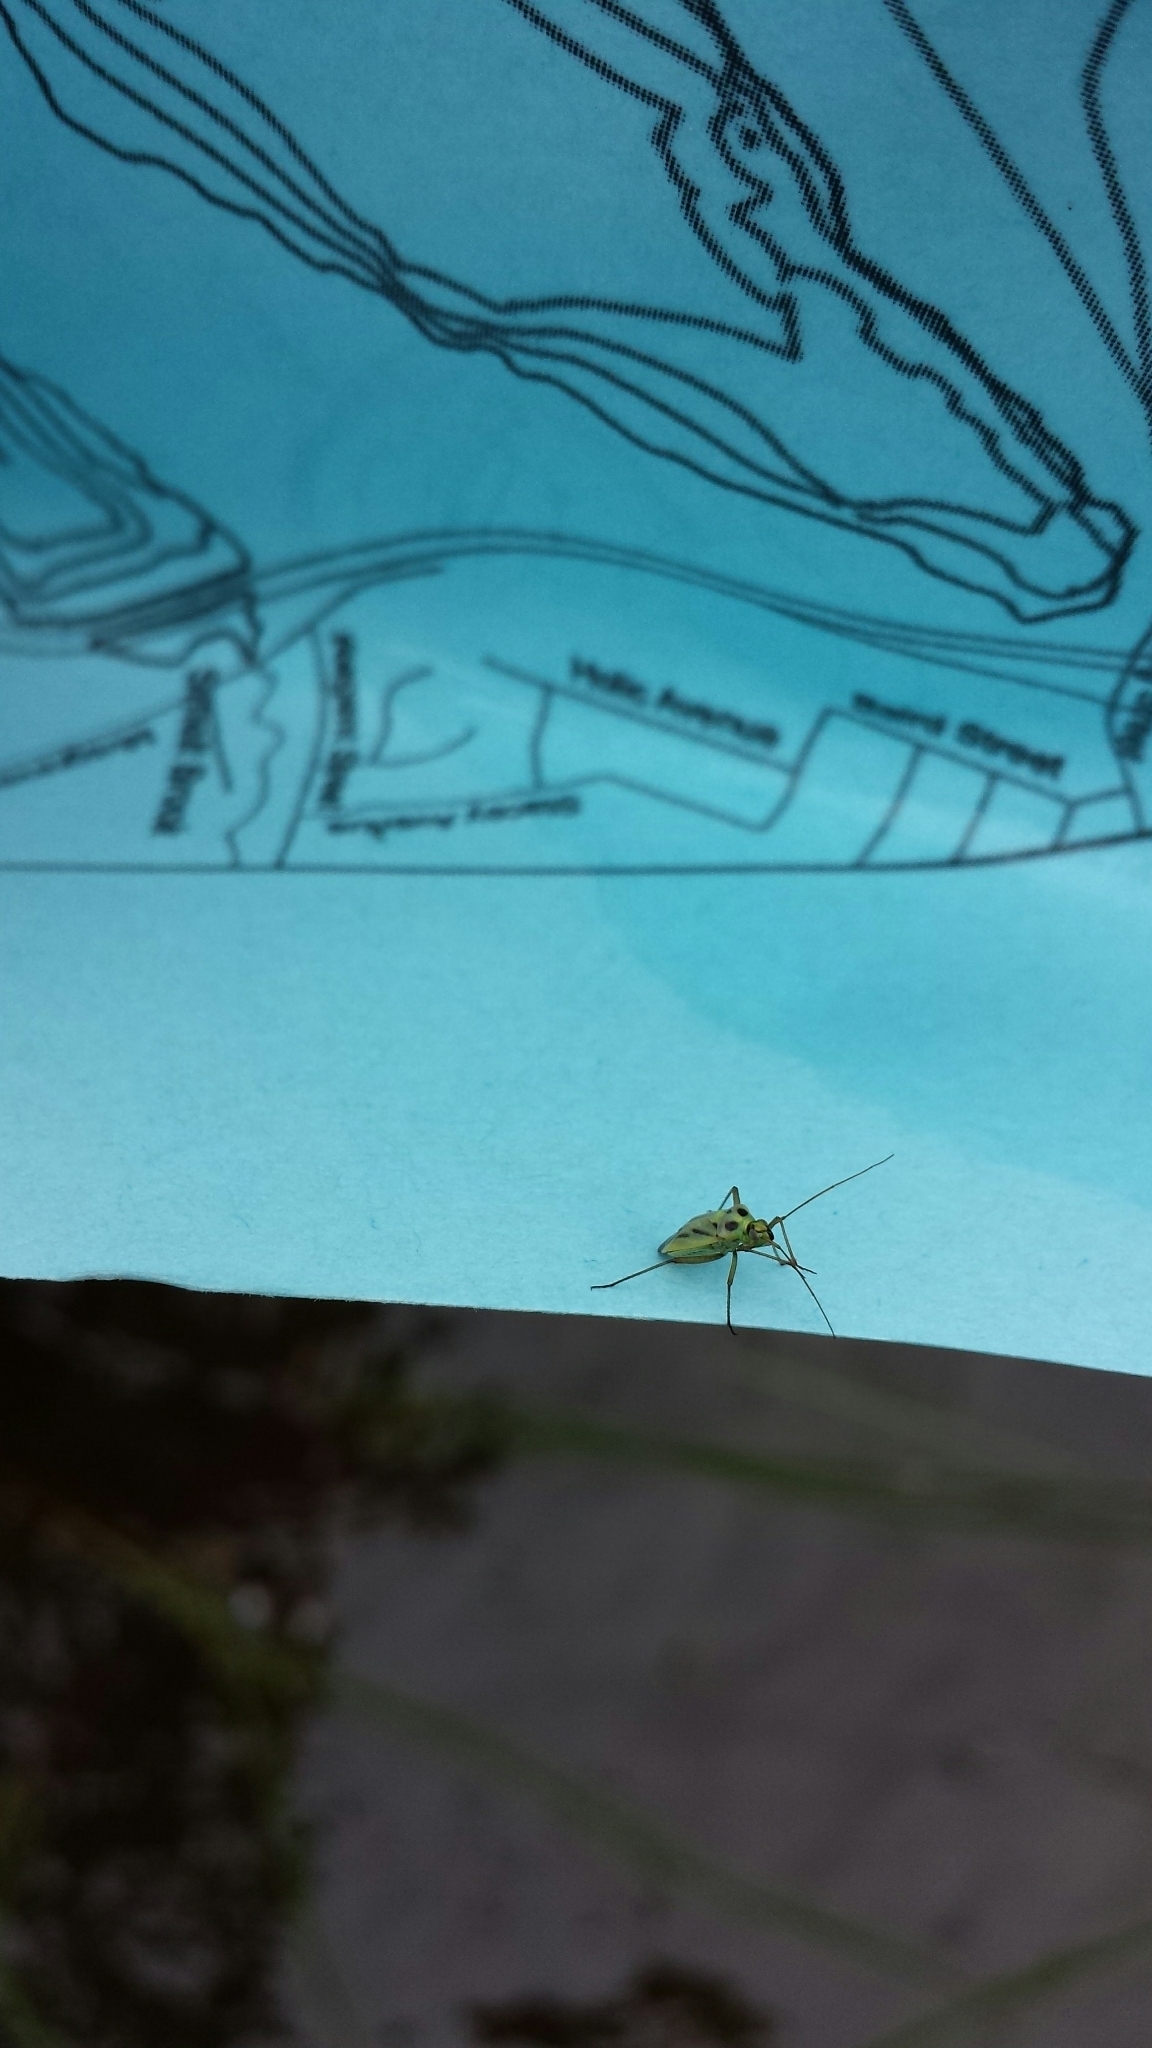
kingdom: Animalia
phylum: Arthropoda
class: Insecta
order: Hemiptera
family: Miridae
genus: Stenotus
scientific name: Stenotus binotatus
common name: Plant bug
